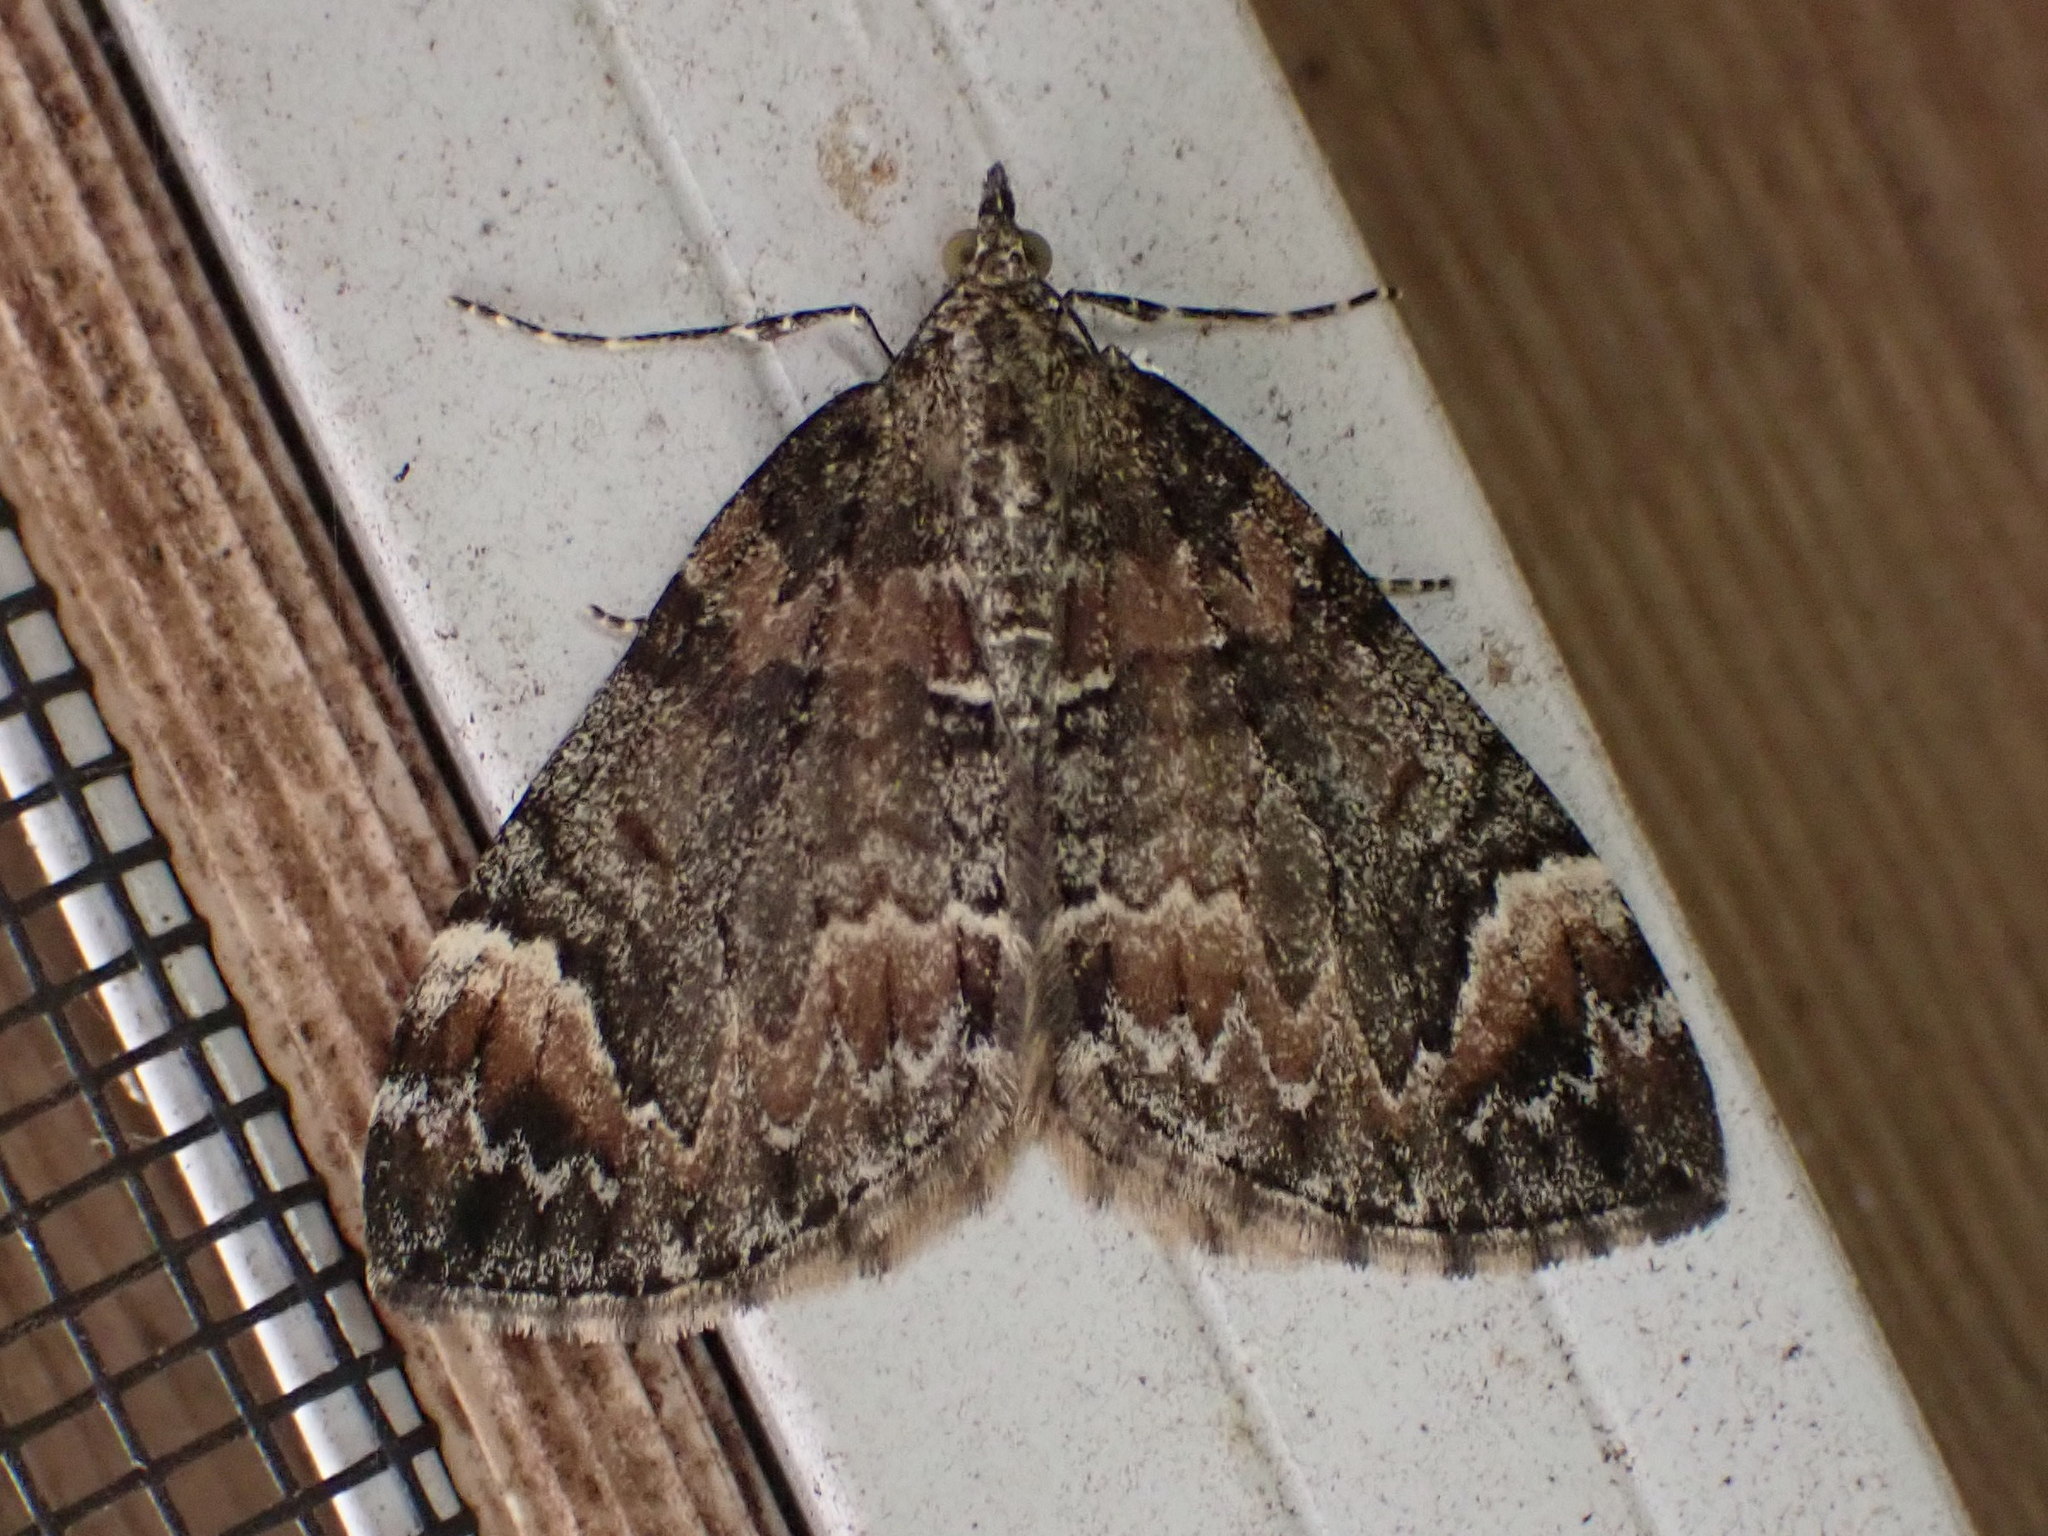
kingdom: Animalia
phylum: Arthropoda
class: Insecta
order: Lepidoptera
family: Geometridae
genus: Dysstroma
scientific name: Dysstroma citrata
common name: Dark marbled carpet
